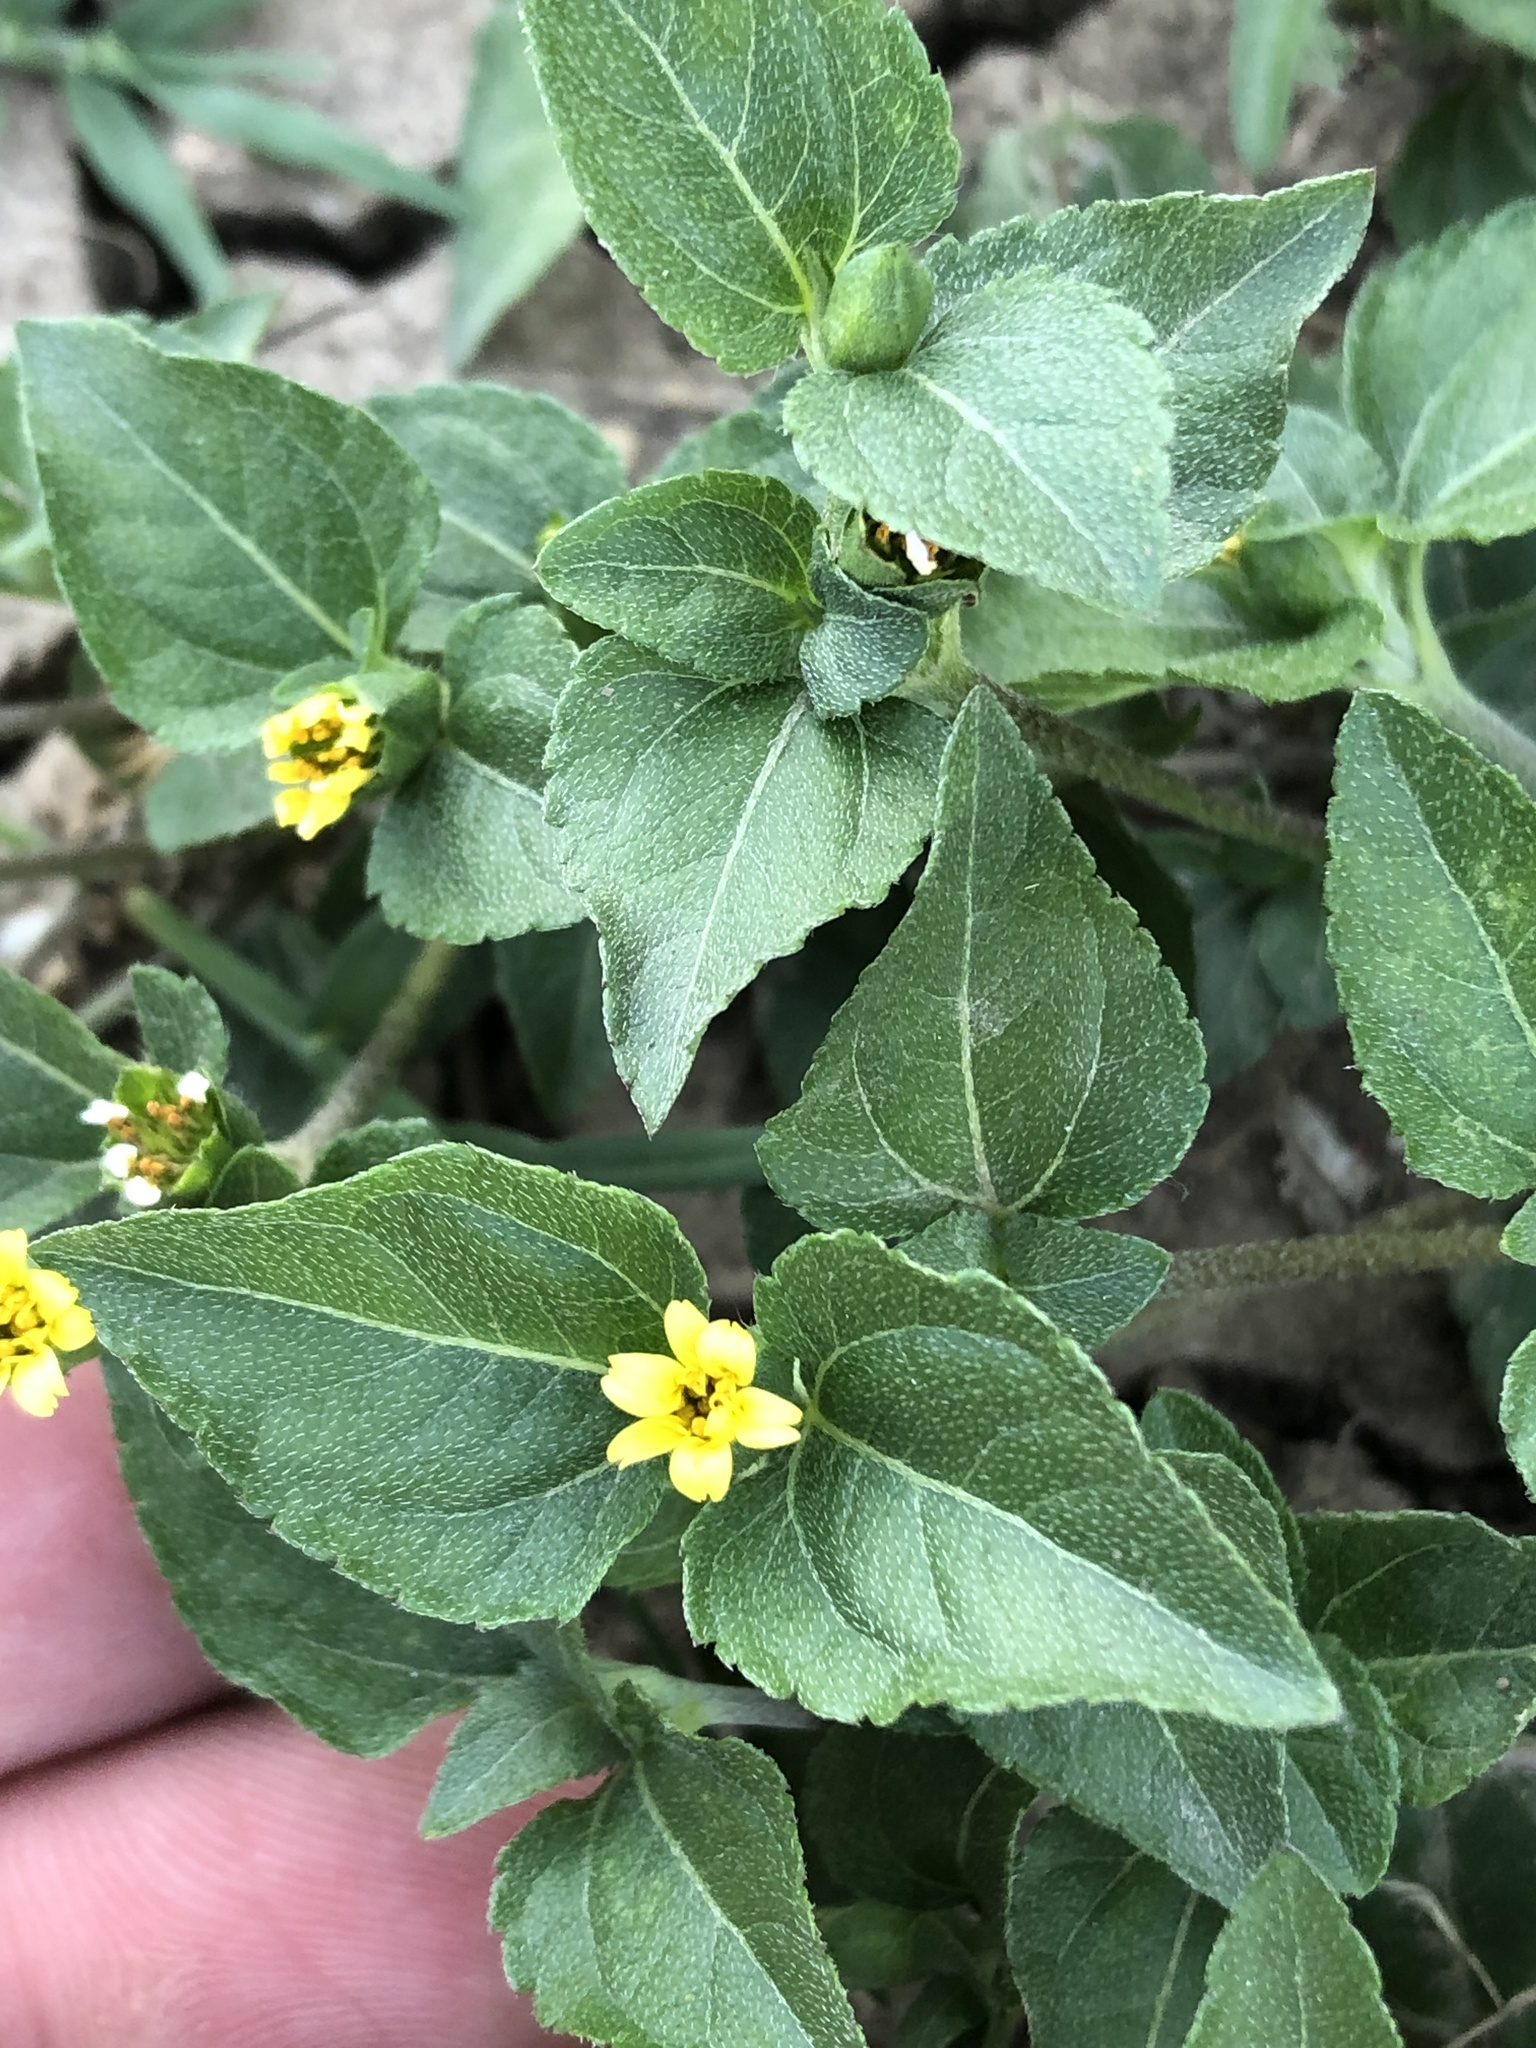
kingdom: Plantae
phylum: Tracheophyta
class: Magnoliopsida
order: Asterales
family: Asteraceae
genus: Calyptocarpus
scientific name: Calyptocarpus vialis
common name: Straggler daisy
